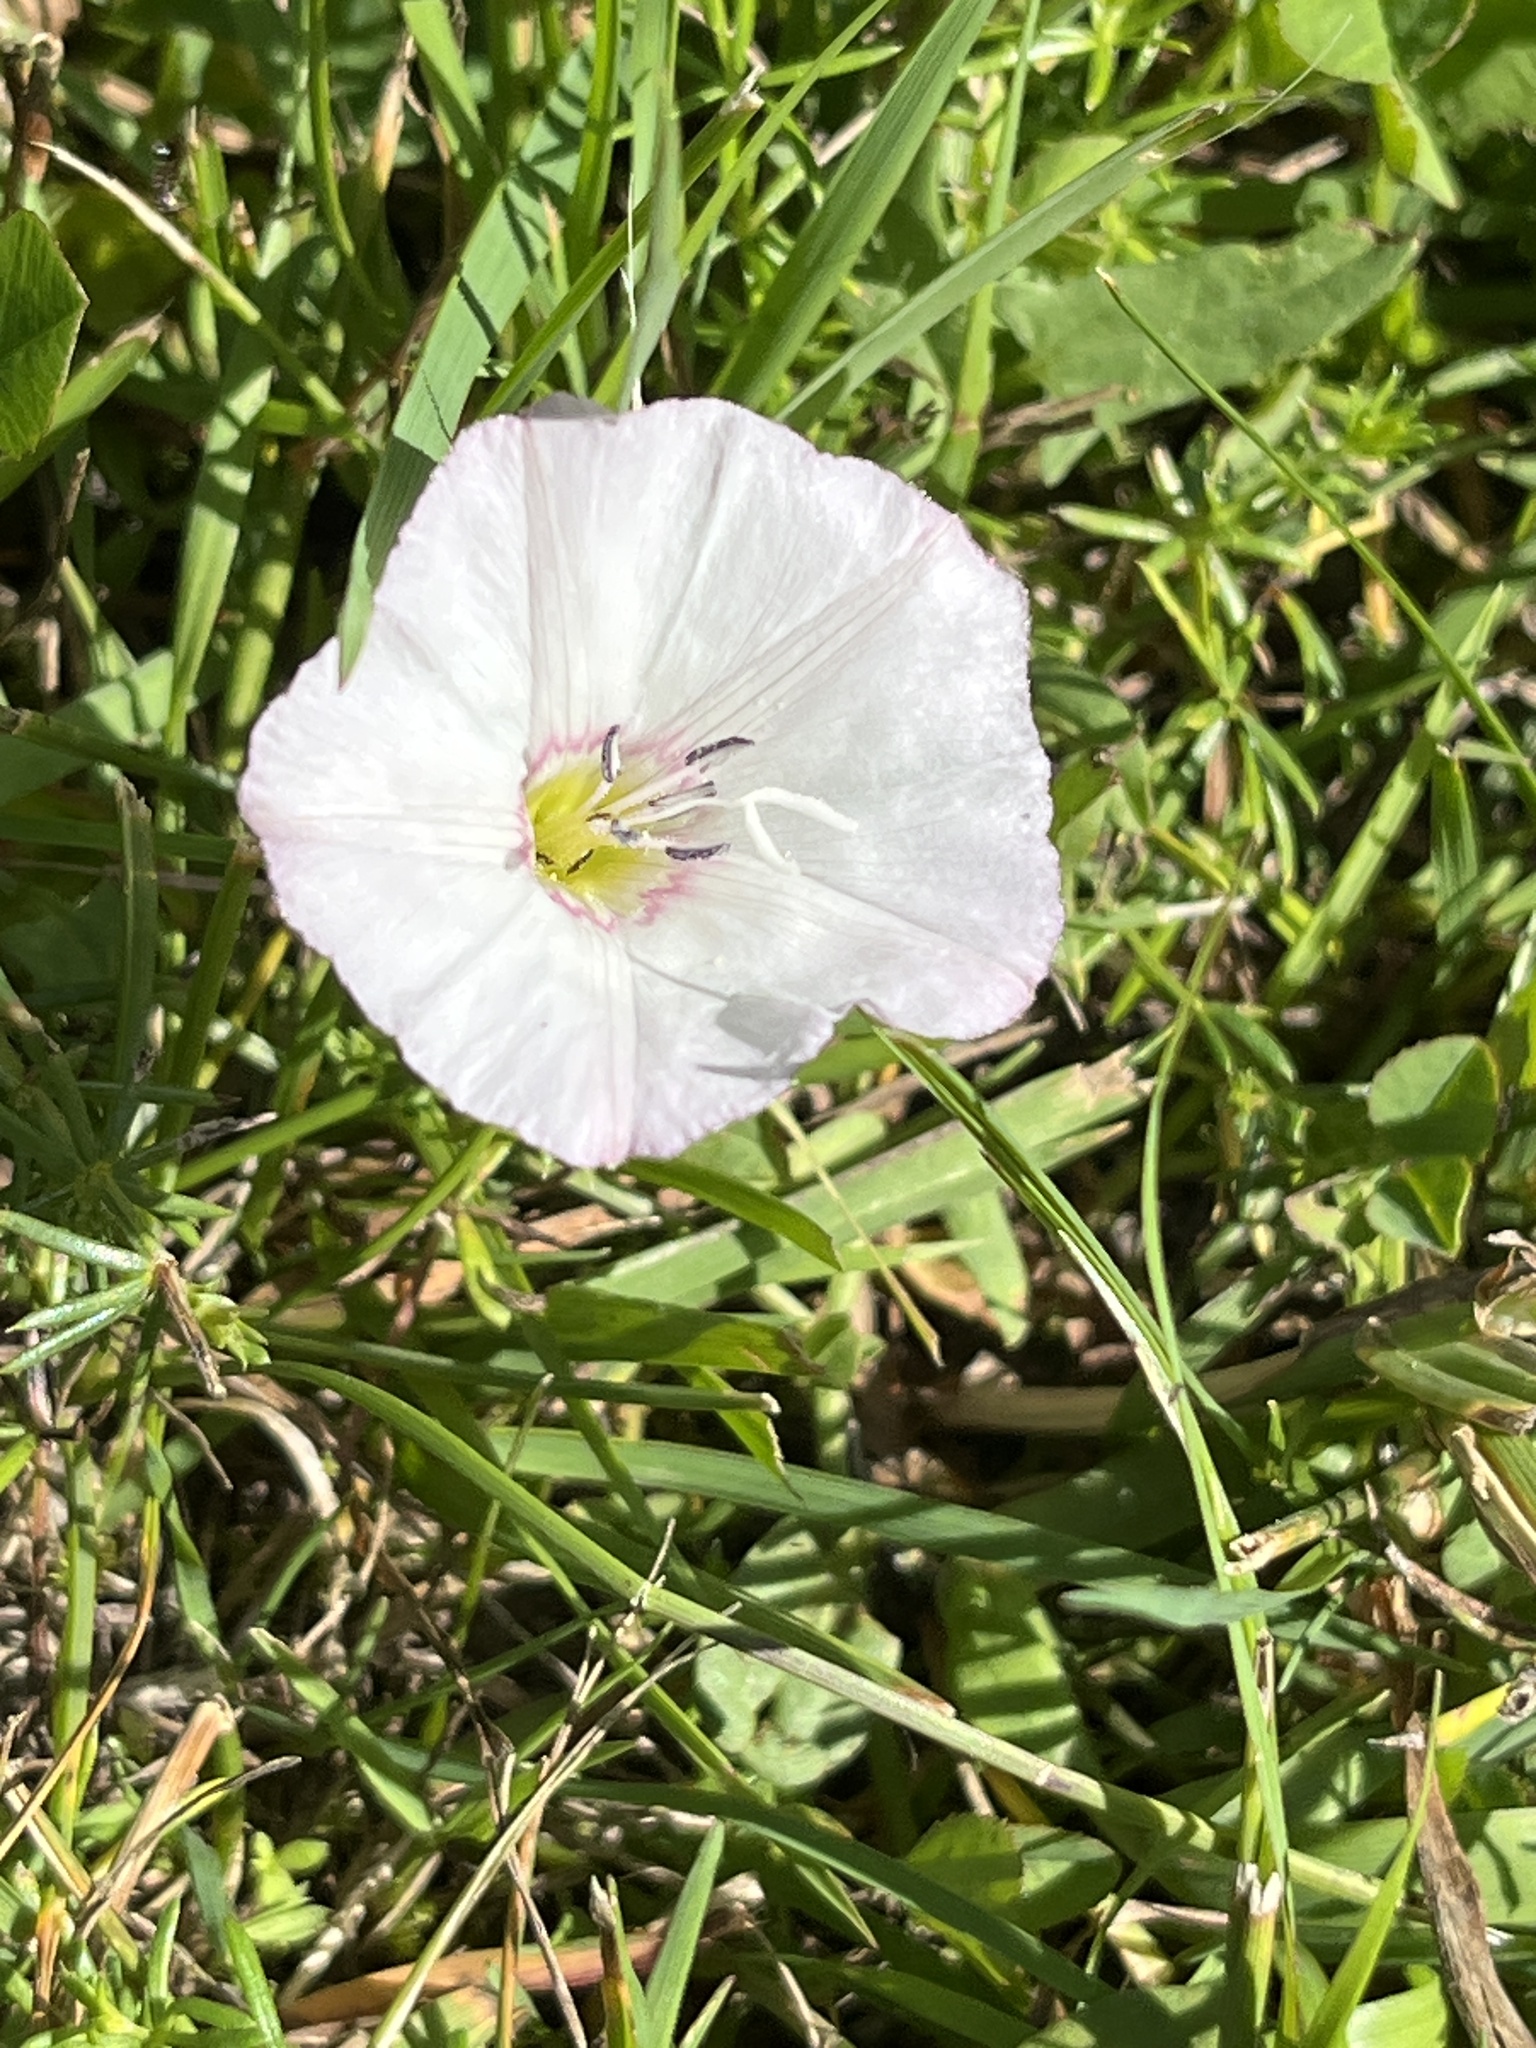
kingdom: Plantae
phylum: Tracheophyta
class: Magnoliopsida
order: Solanales
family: Convolvulaceae
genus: Convolvulus
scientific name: Convolvulus arvensis
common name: Field bindweed
